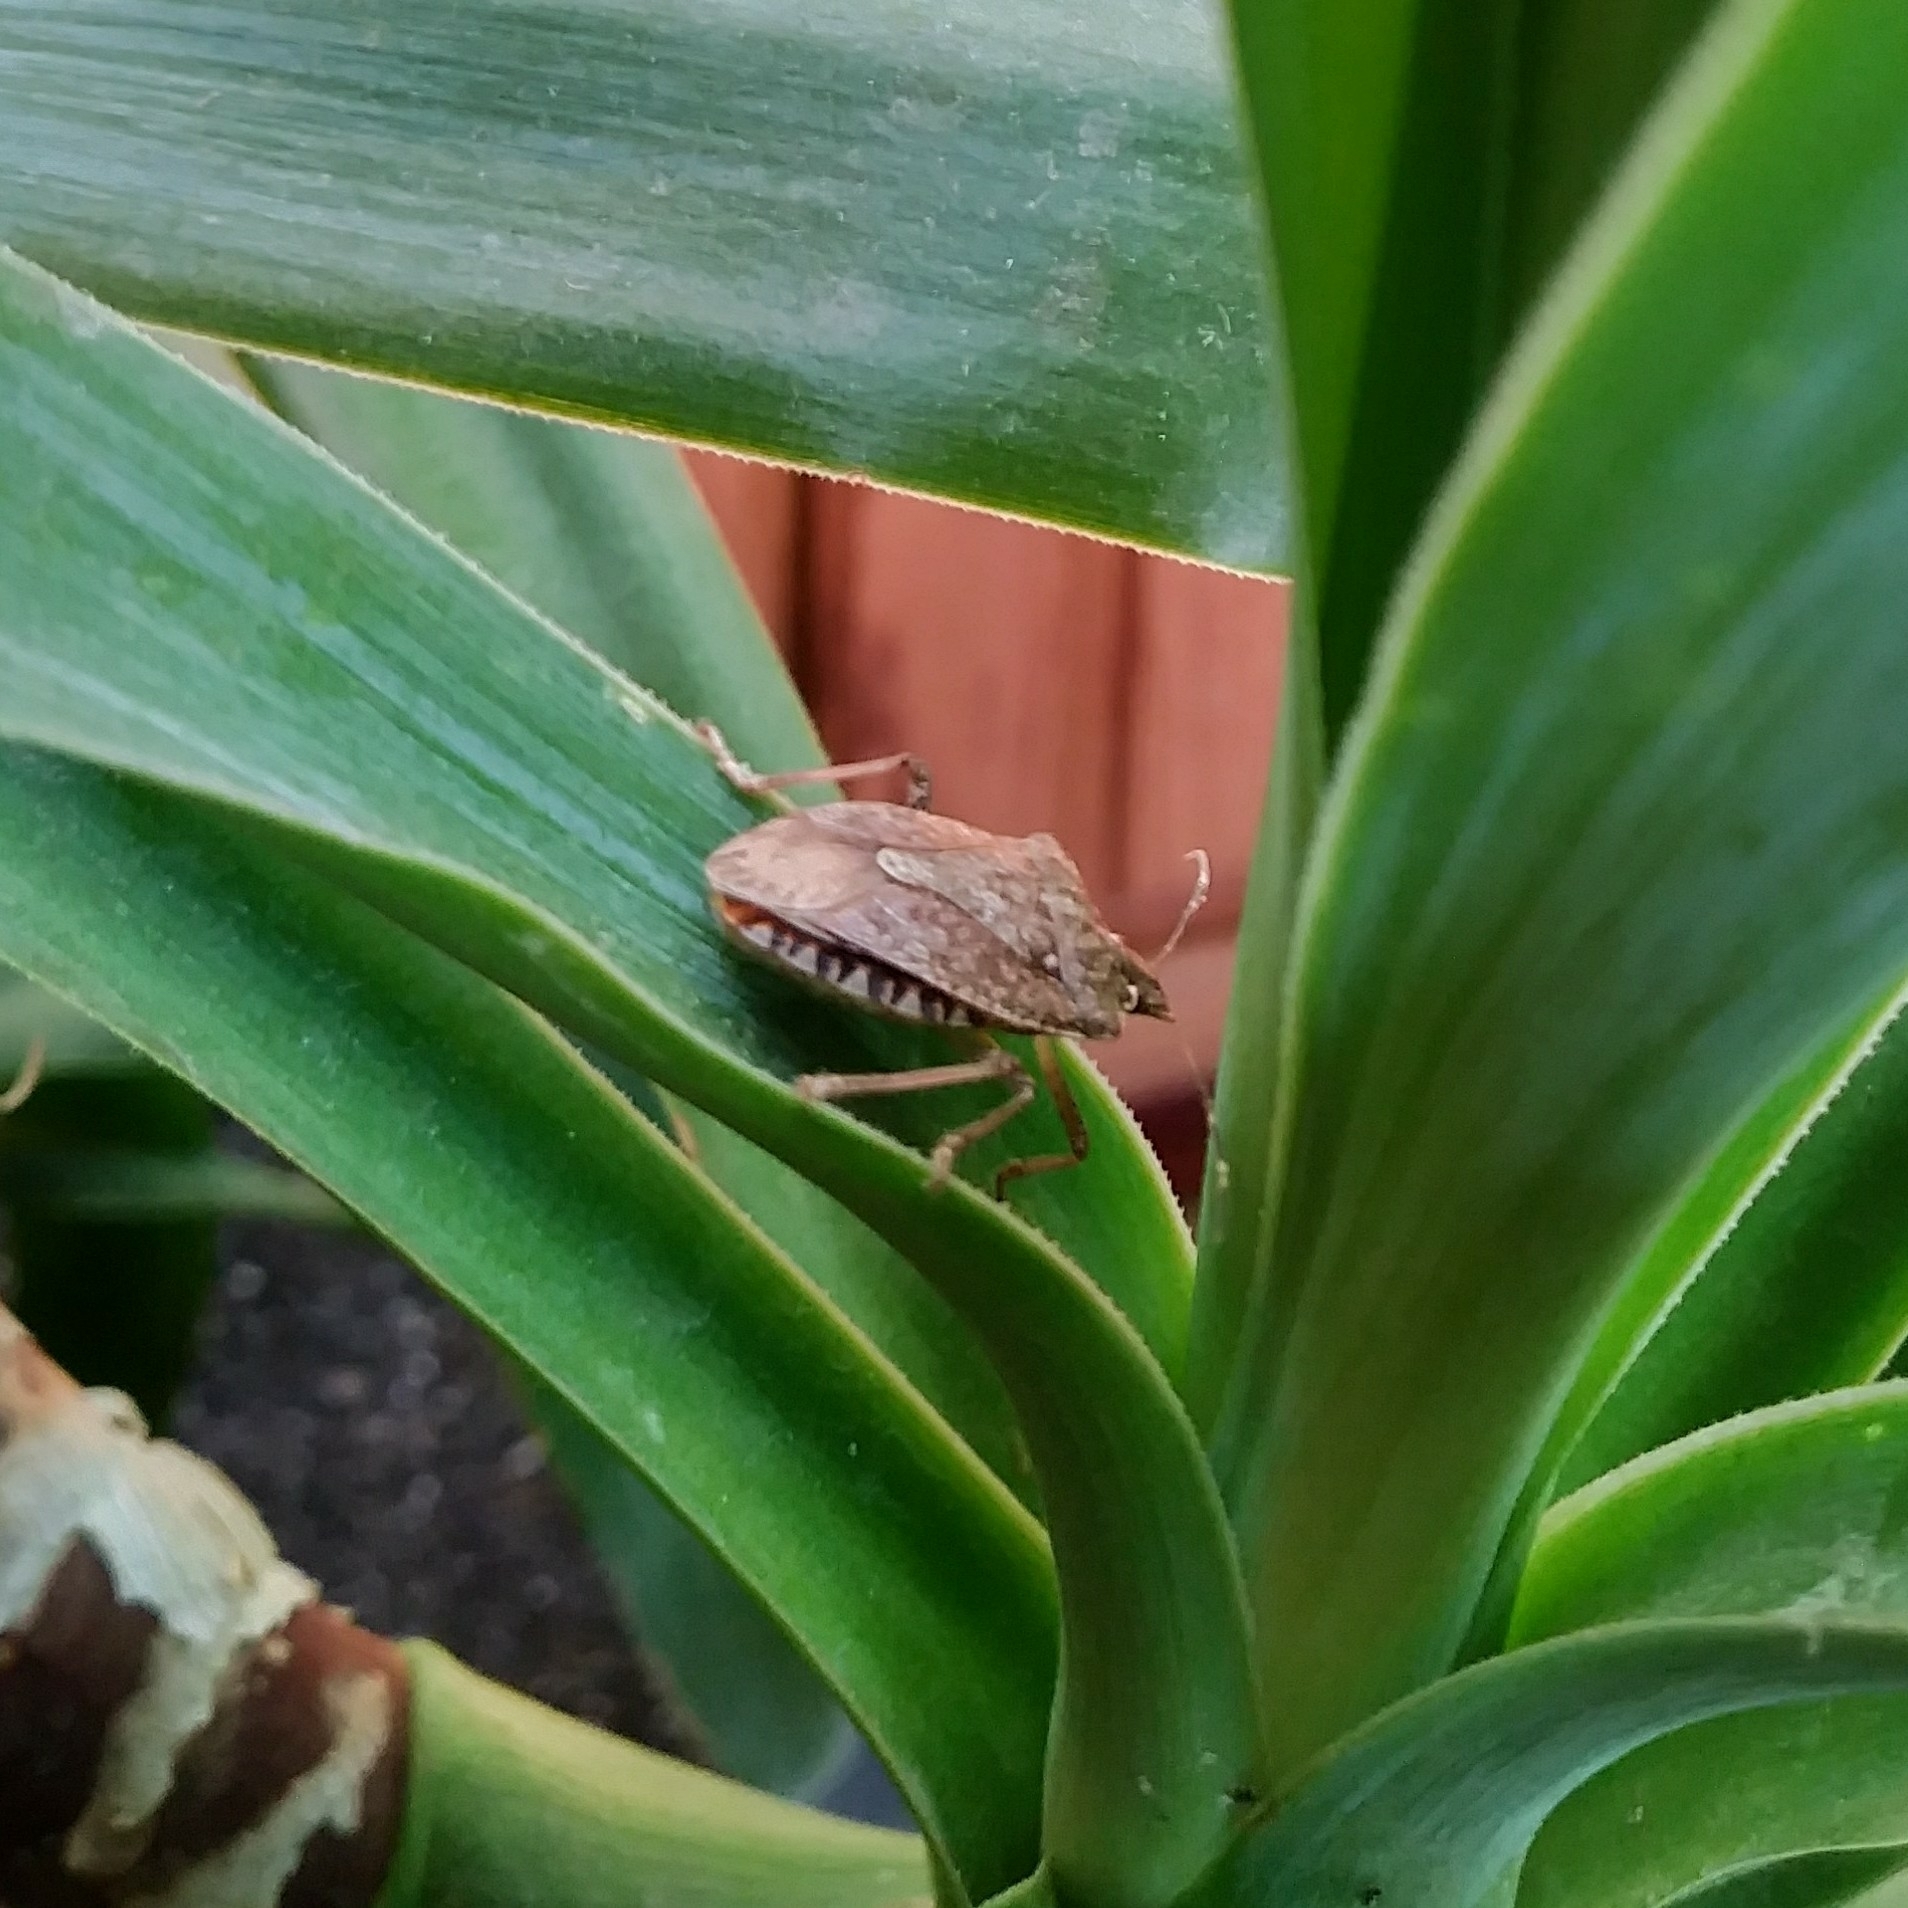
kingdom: Animalia
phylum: Arthropoda
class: Insecta
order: Hemiptera
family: Pentatomidae
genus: Halyomorpha
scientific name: Halyomorpha halys
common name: Brown marmorated stink bug
